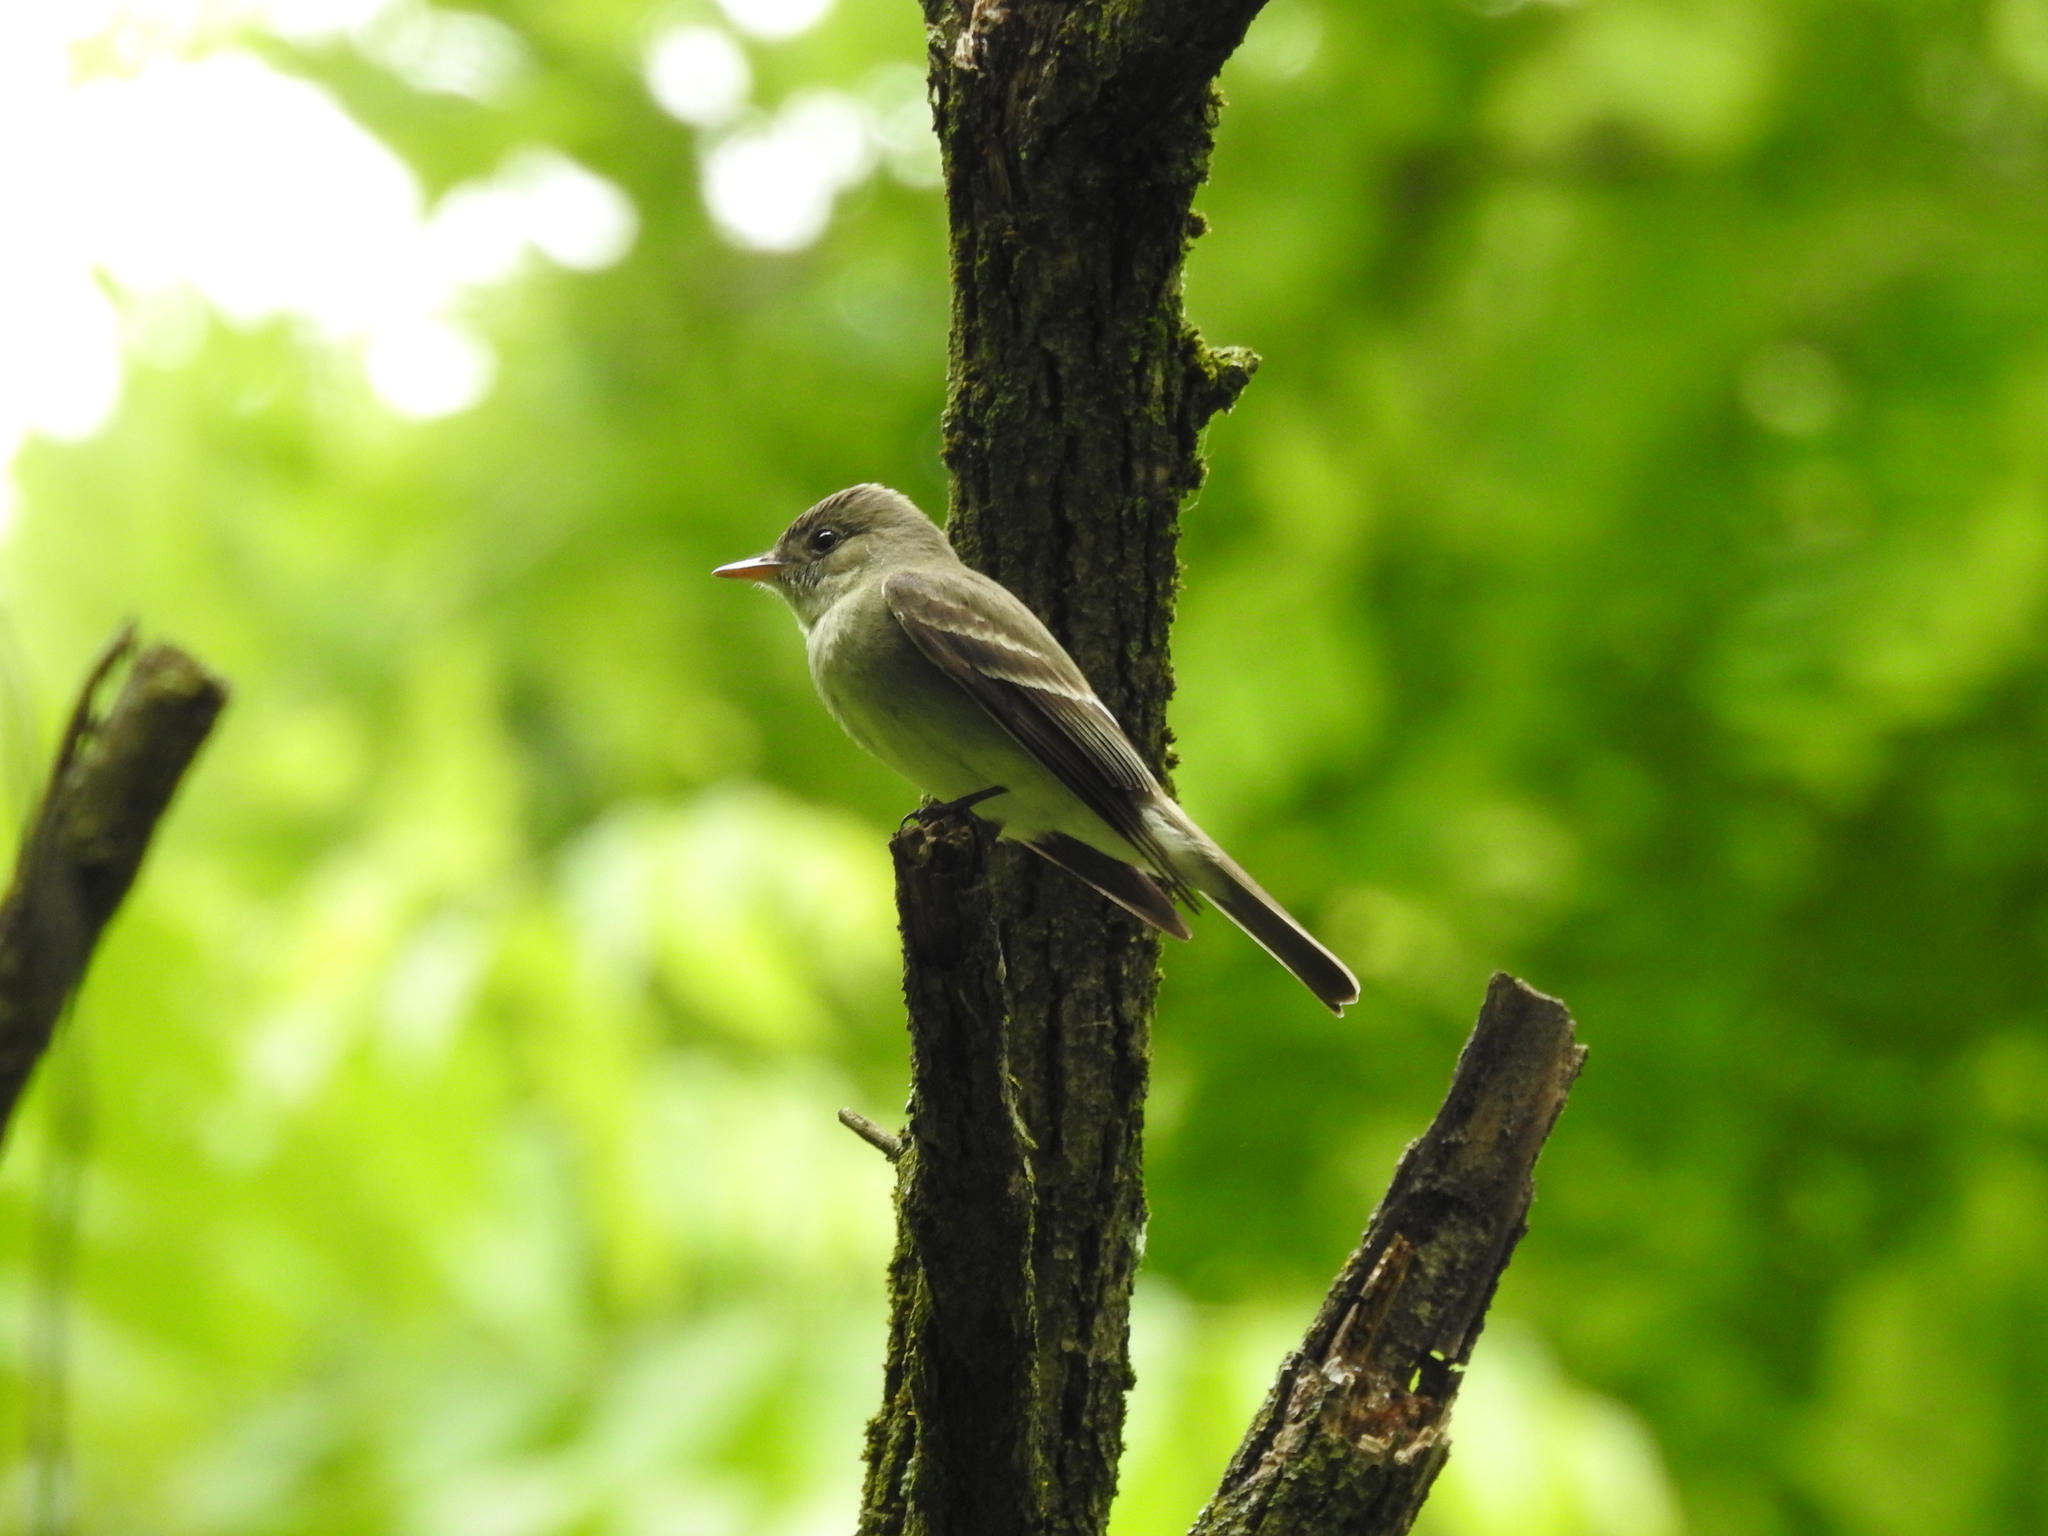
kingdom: Animalia
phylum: Chordata
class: Aves
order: Passeriformes
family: Tyrannidae
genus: Contopus
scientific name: Contopus virens
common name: Eastern wood-pewee
